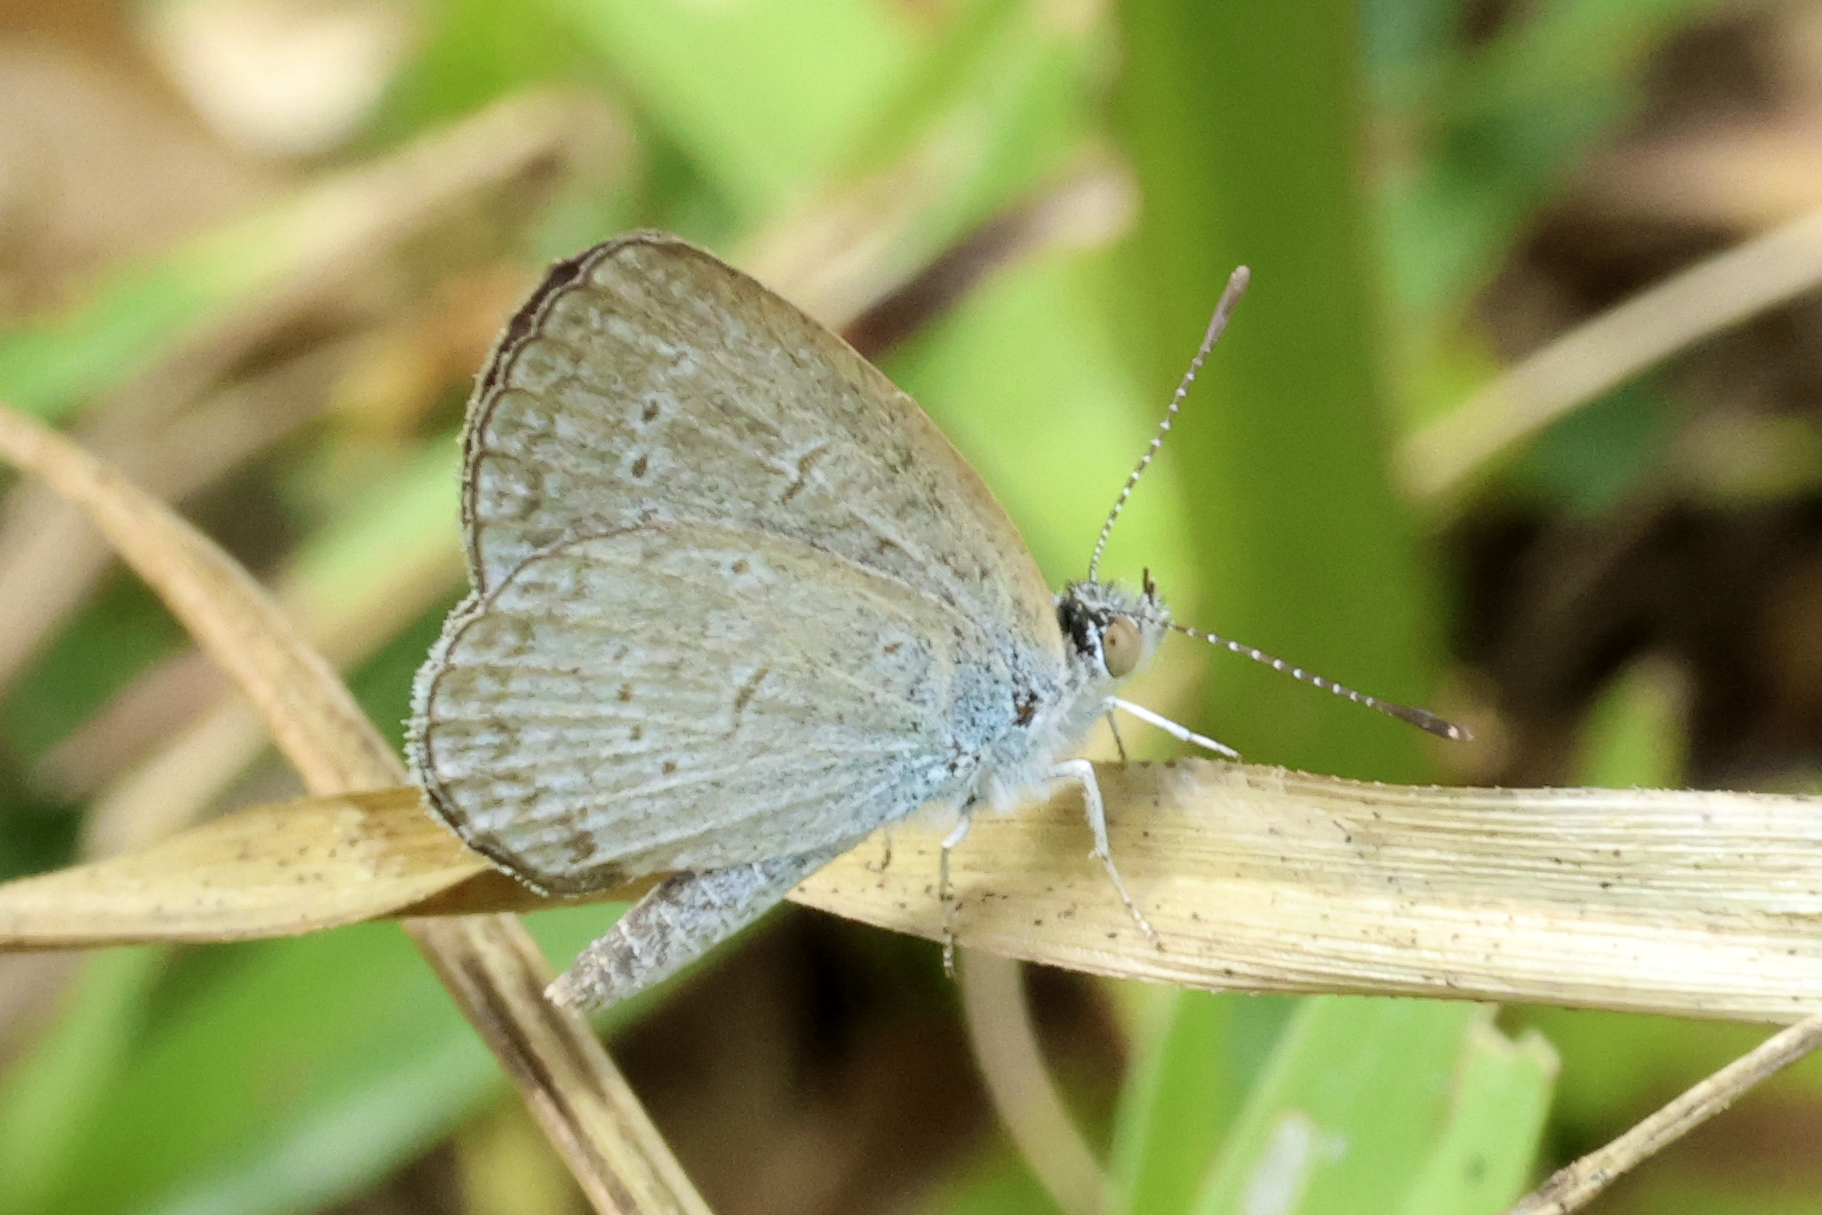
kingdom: Animalia
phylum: Arthropoda
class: Insecta
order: Lepidoptera
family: Lycaenidae
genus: Zizina
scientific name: Zizina otis
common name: Lesser grass blue
